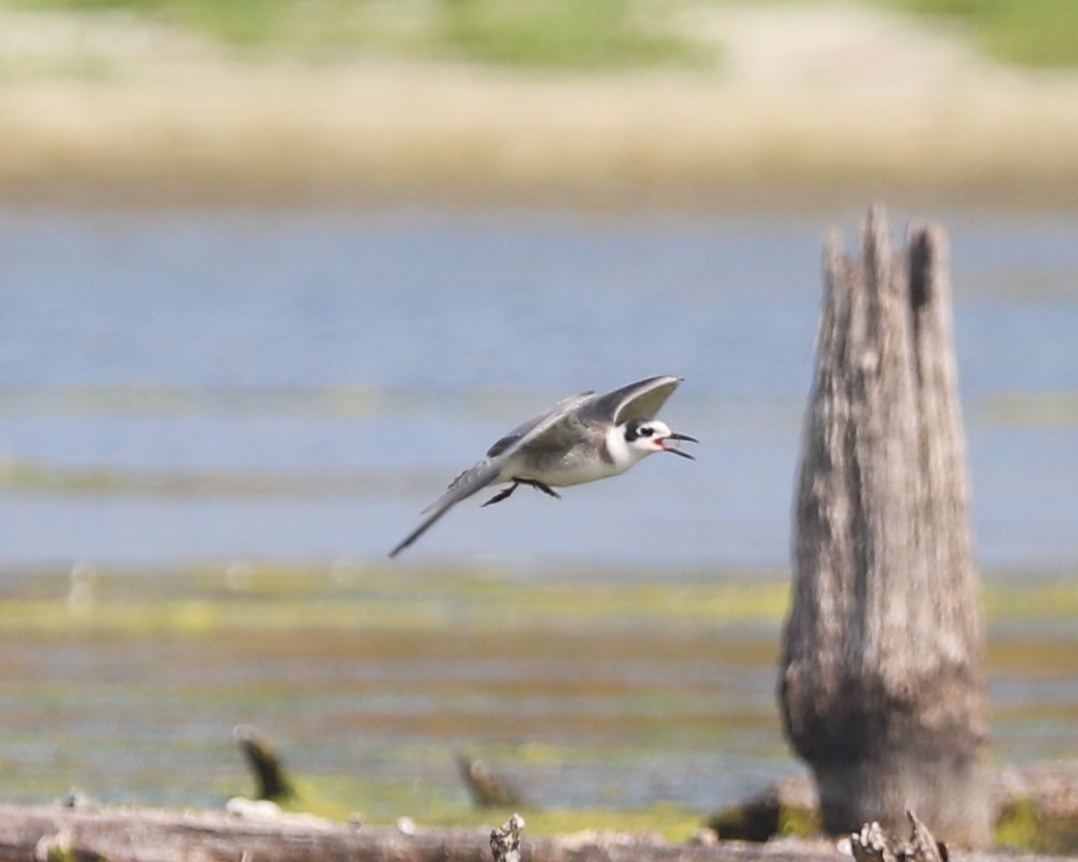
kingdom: Animalia
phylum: Chordata
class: Aves
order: Charadriiformes
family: Laridae
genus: Chlidonias
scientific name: Chlidonias niger
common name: Black tern
